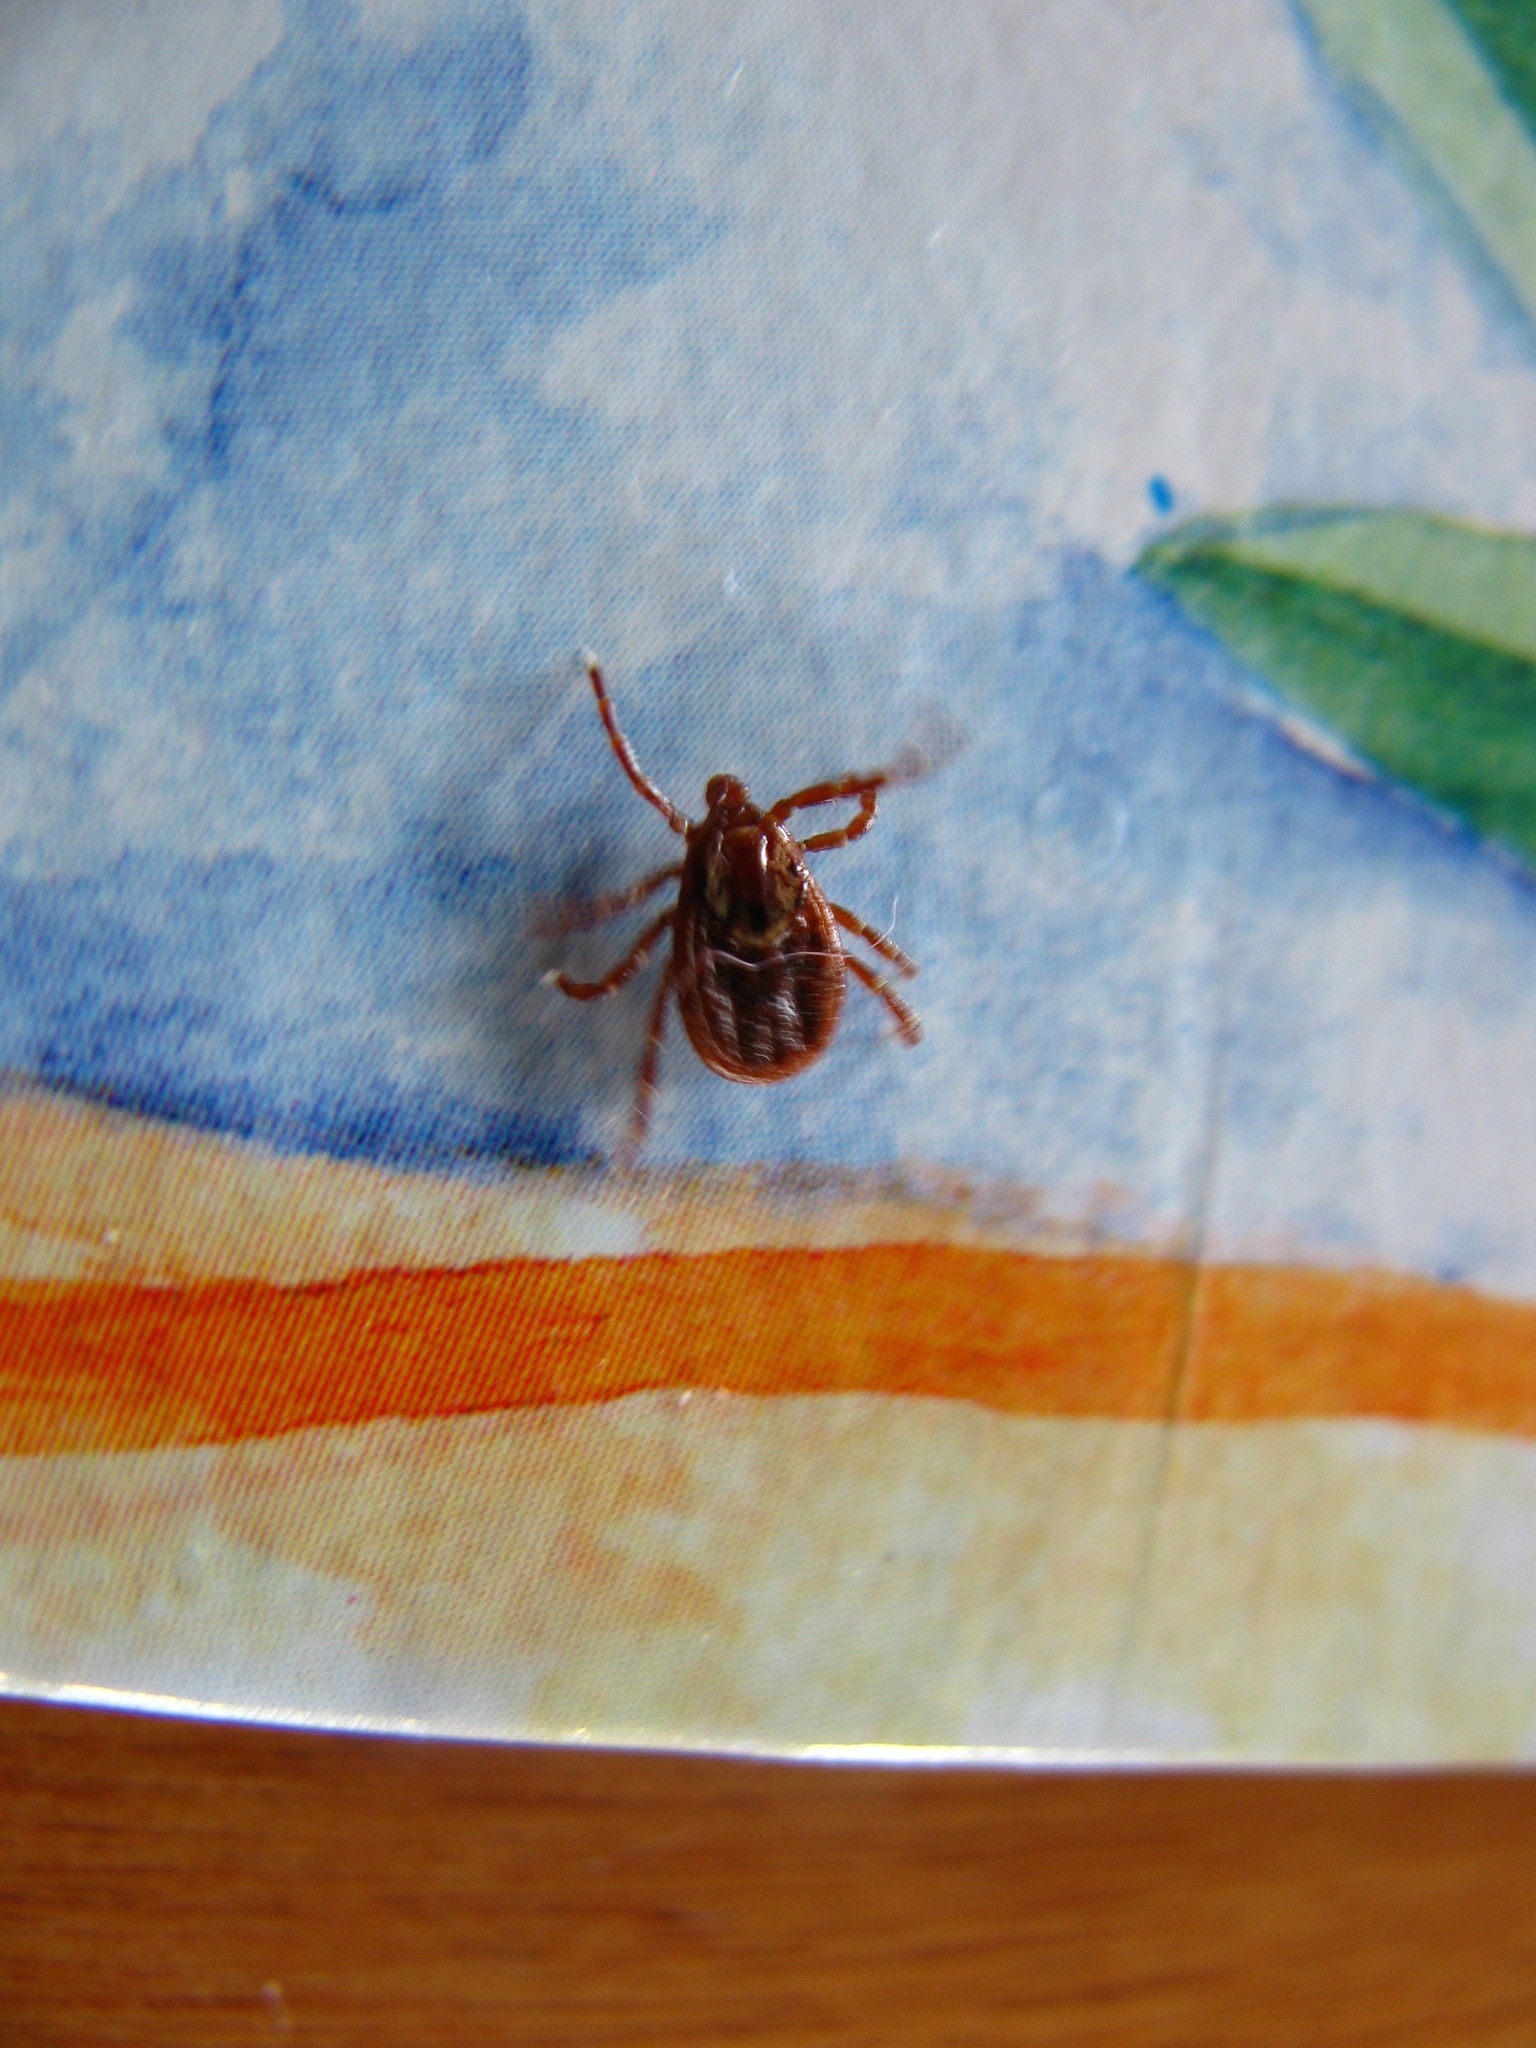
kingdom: Animalia
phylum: Arthropoda
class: Arachnida
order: Ixodida
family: Ixodidae
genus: Dermacentor
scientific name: Dermacentor variabilis
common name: American dog tick
